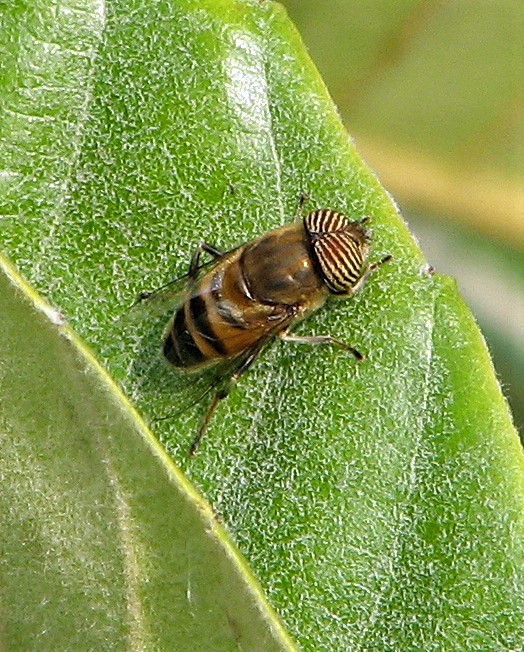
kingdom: Animalia
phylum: Arthropoda
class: Insecta
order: Diptera
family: Syrphidae
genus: Eristalinus
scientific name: Eristalinus taeniops
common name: Syrphid fly
